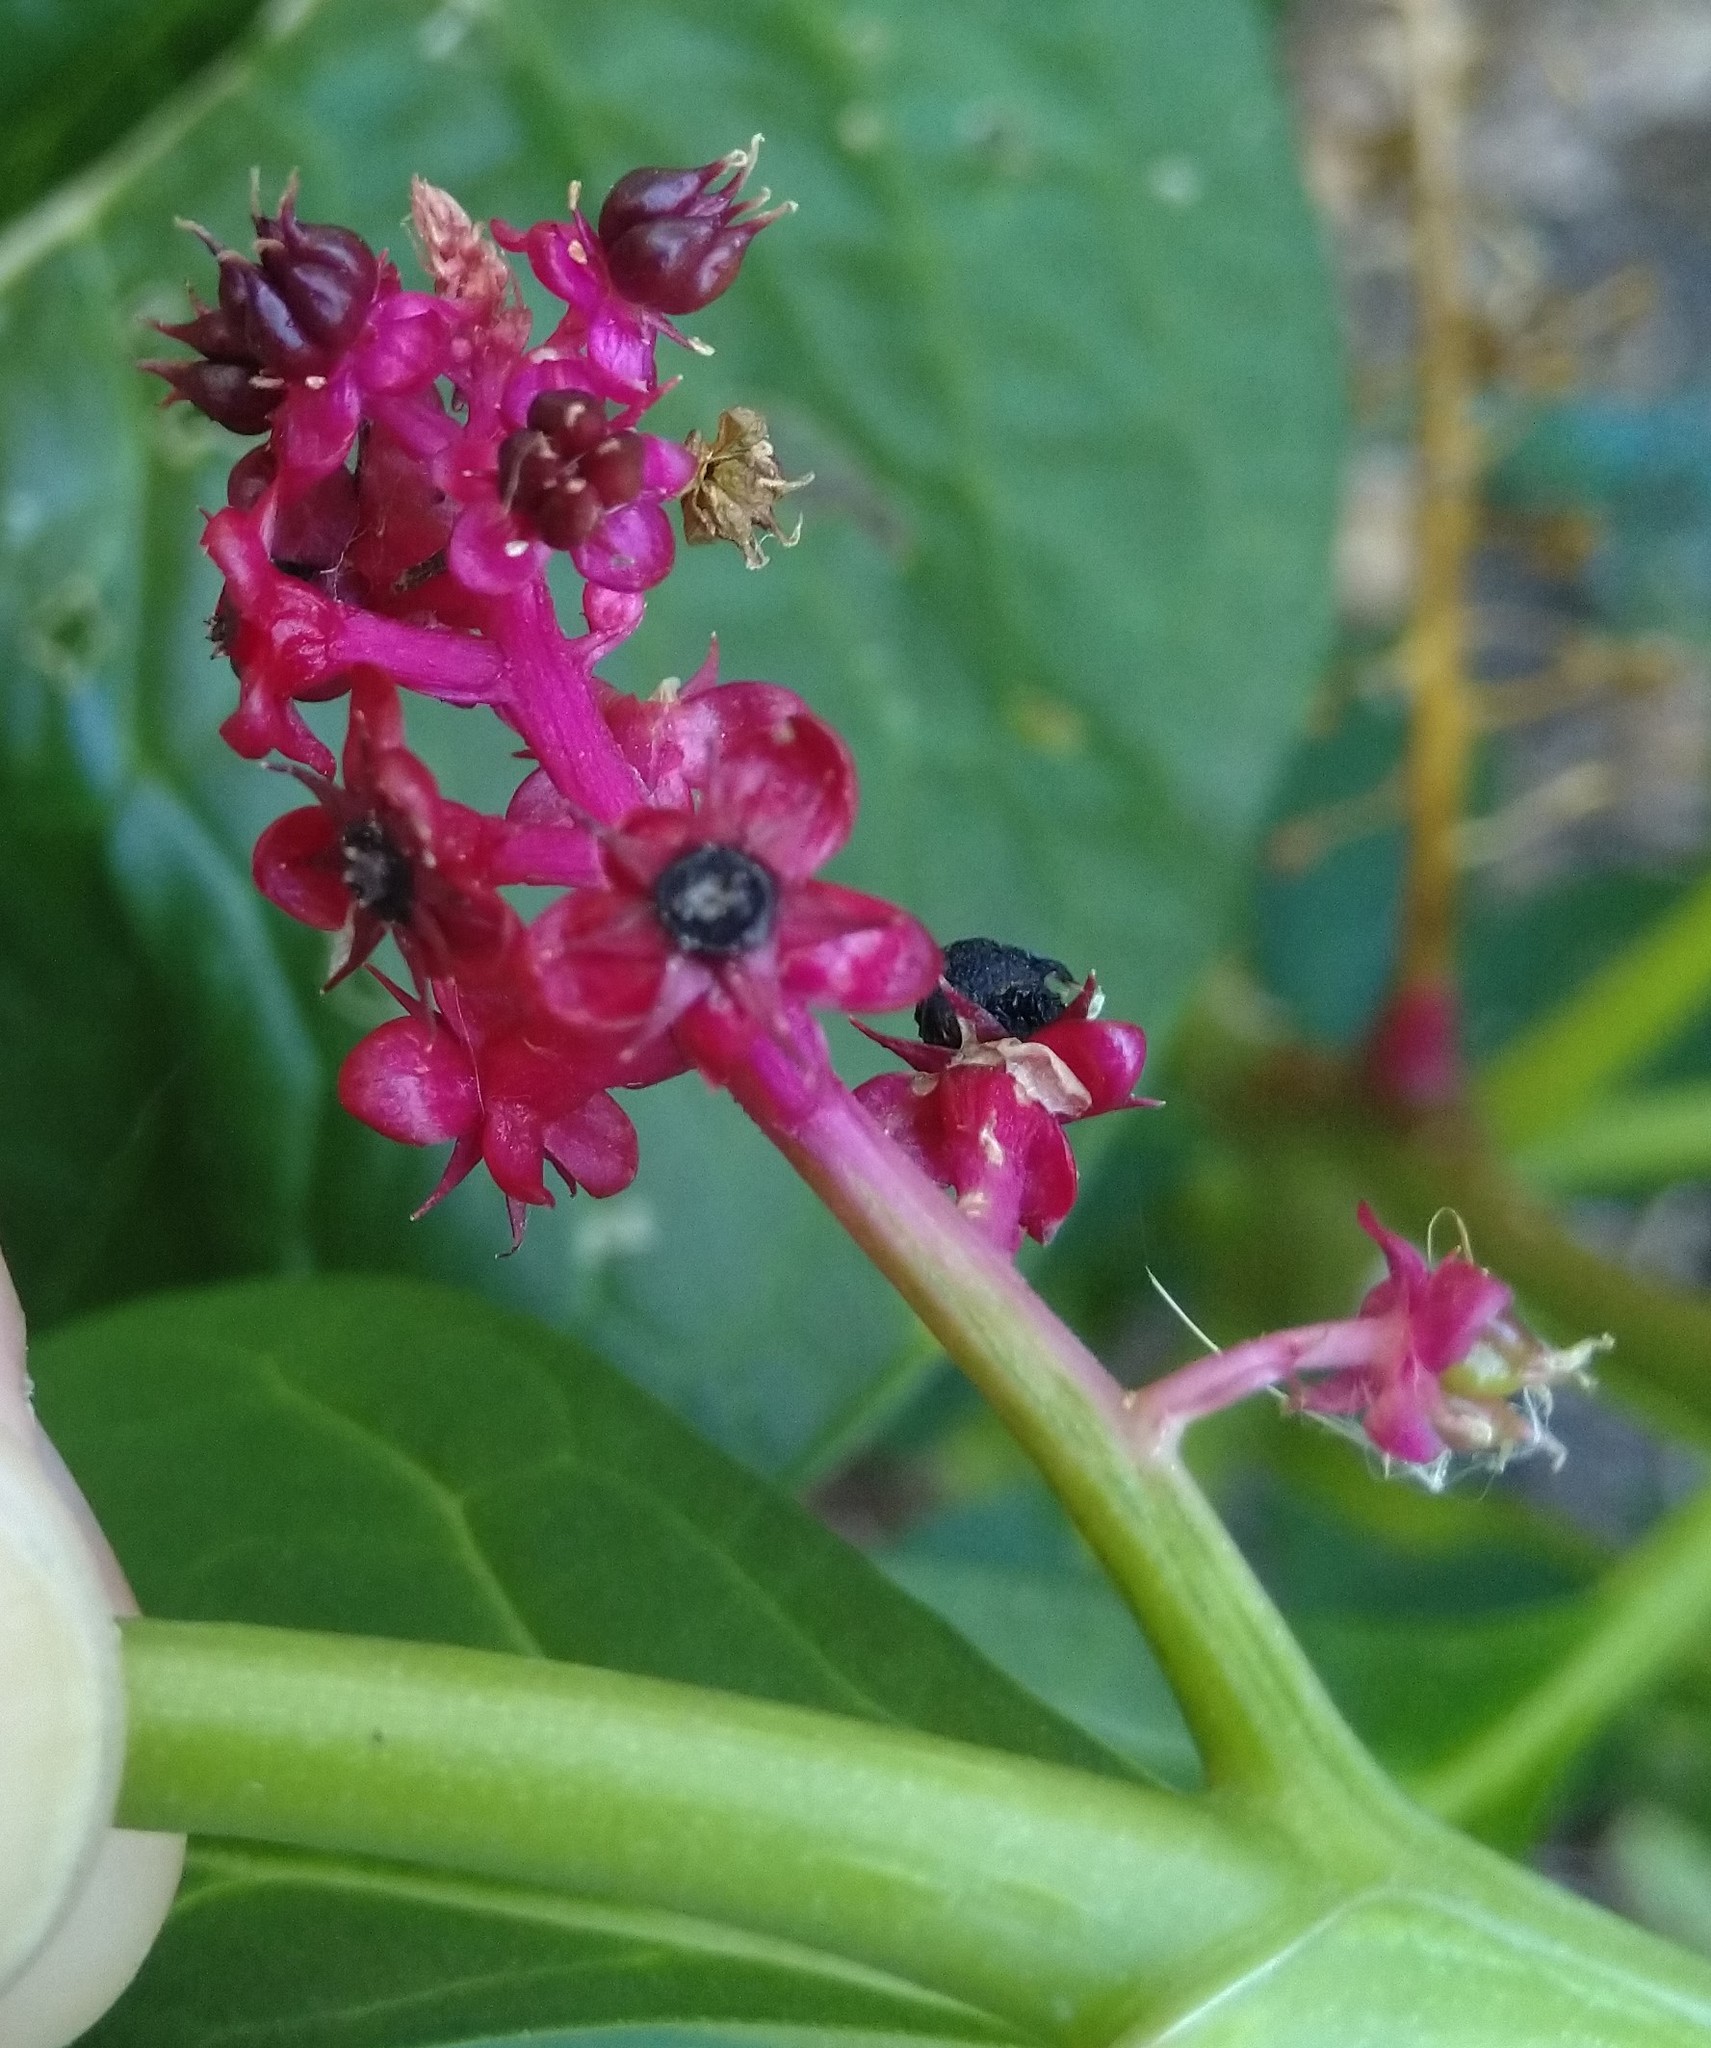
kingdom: Plantae
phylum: Tracheophyta
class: Magnoliopsida
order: Caryophyllales
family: Phytolaccaceae
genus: Phytolacca
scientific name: Phytolacca acinosa
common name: Indian pokeweed
